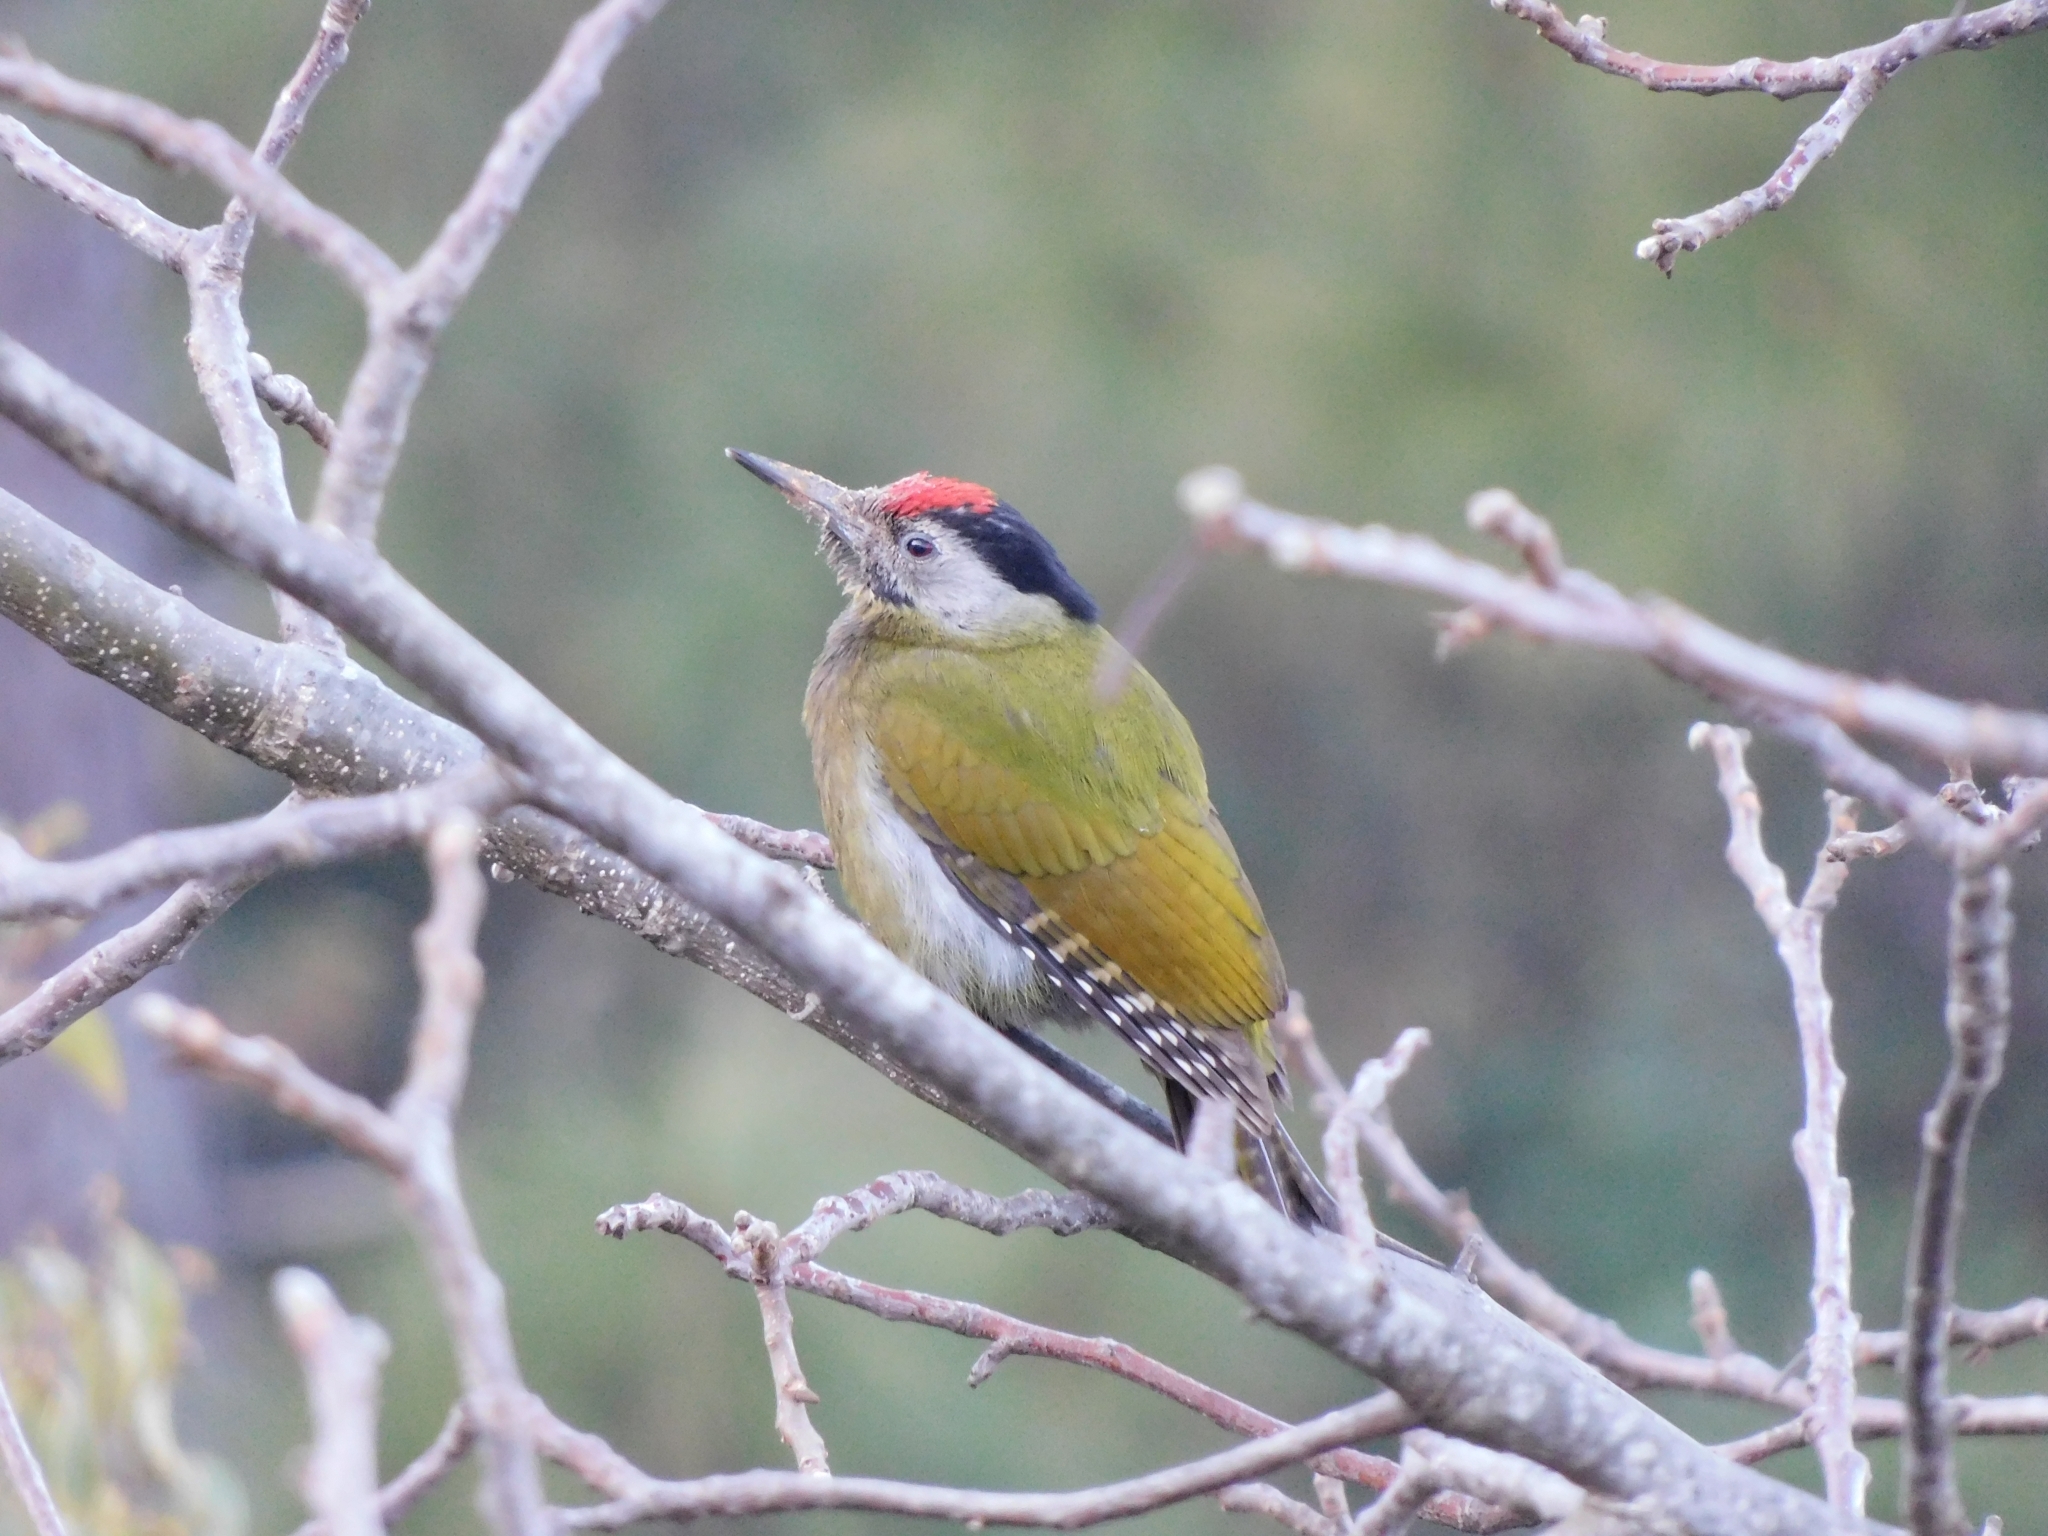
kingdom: Animalia
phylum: Chordata
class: Aves
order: Piciformes
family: Picidae
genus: Picus
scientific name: Picus canus
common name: Grey-headed woodpecker
